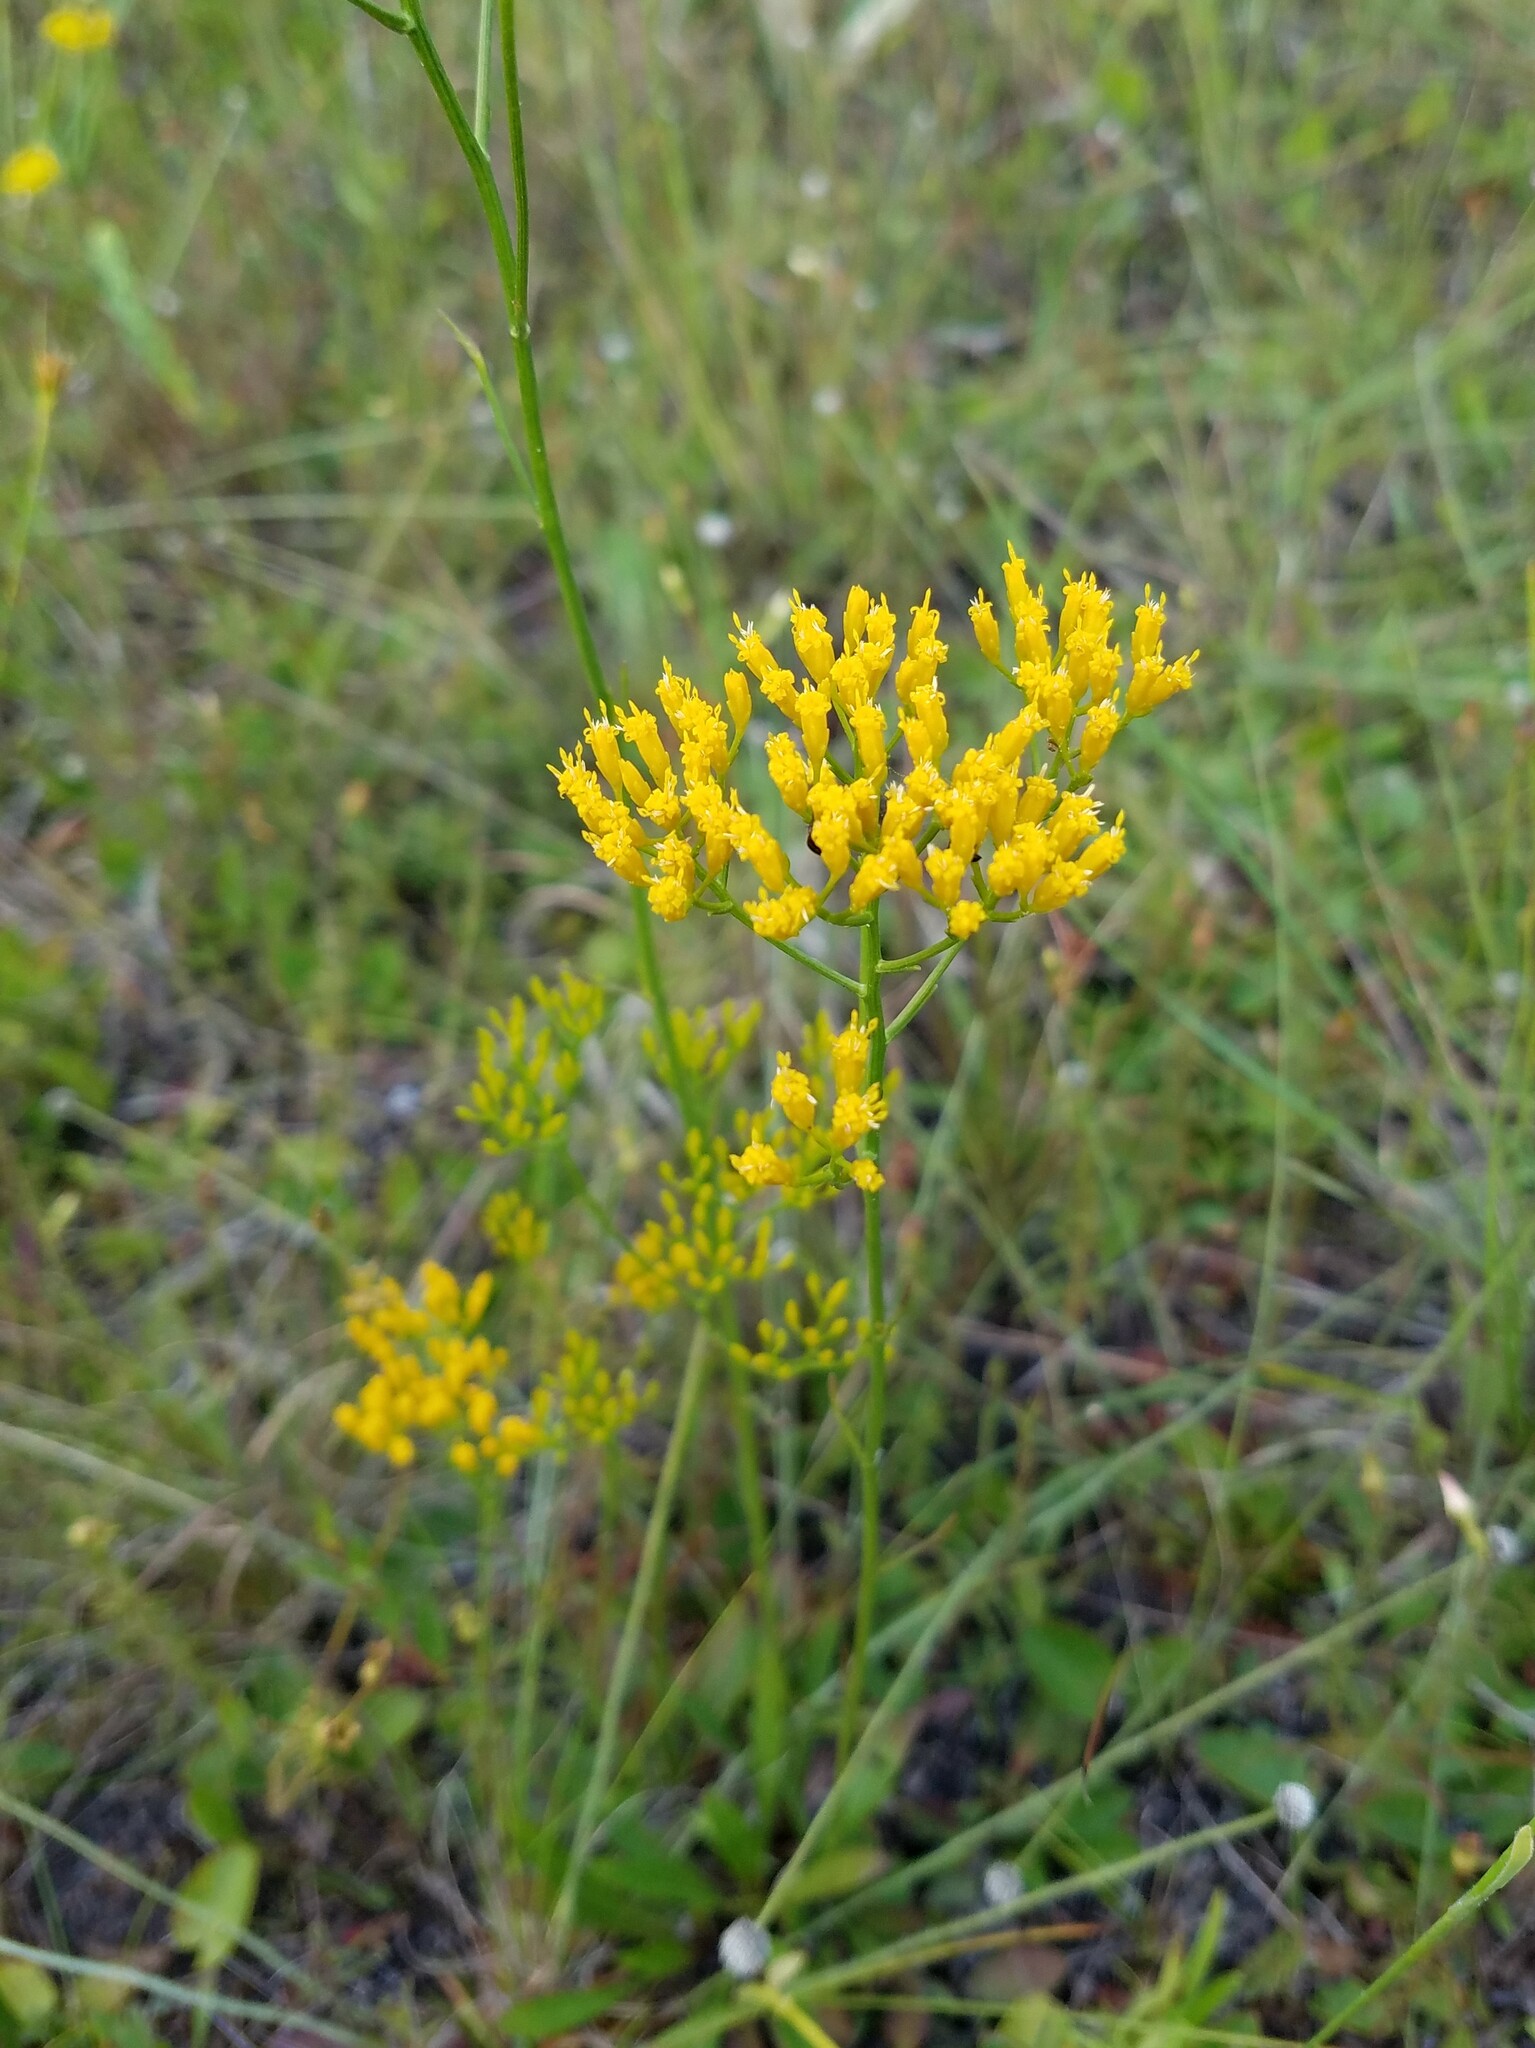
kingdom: Plantae
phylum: Tracheophyta
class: Magnoliopsida
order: Asterales
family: Asteraceae
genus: Bigelowia
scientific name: Bigelowia nudata
